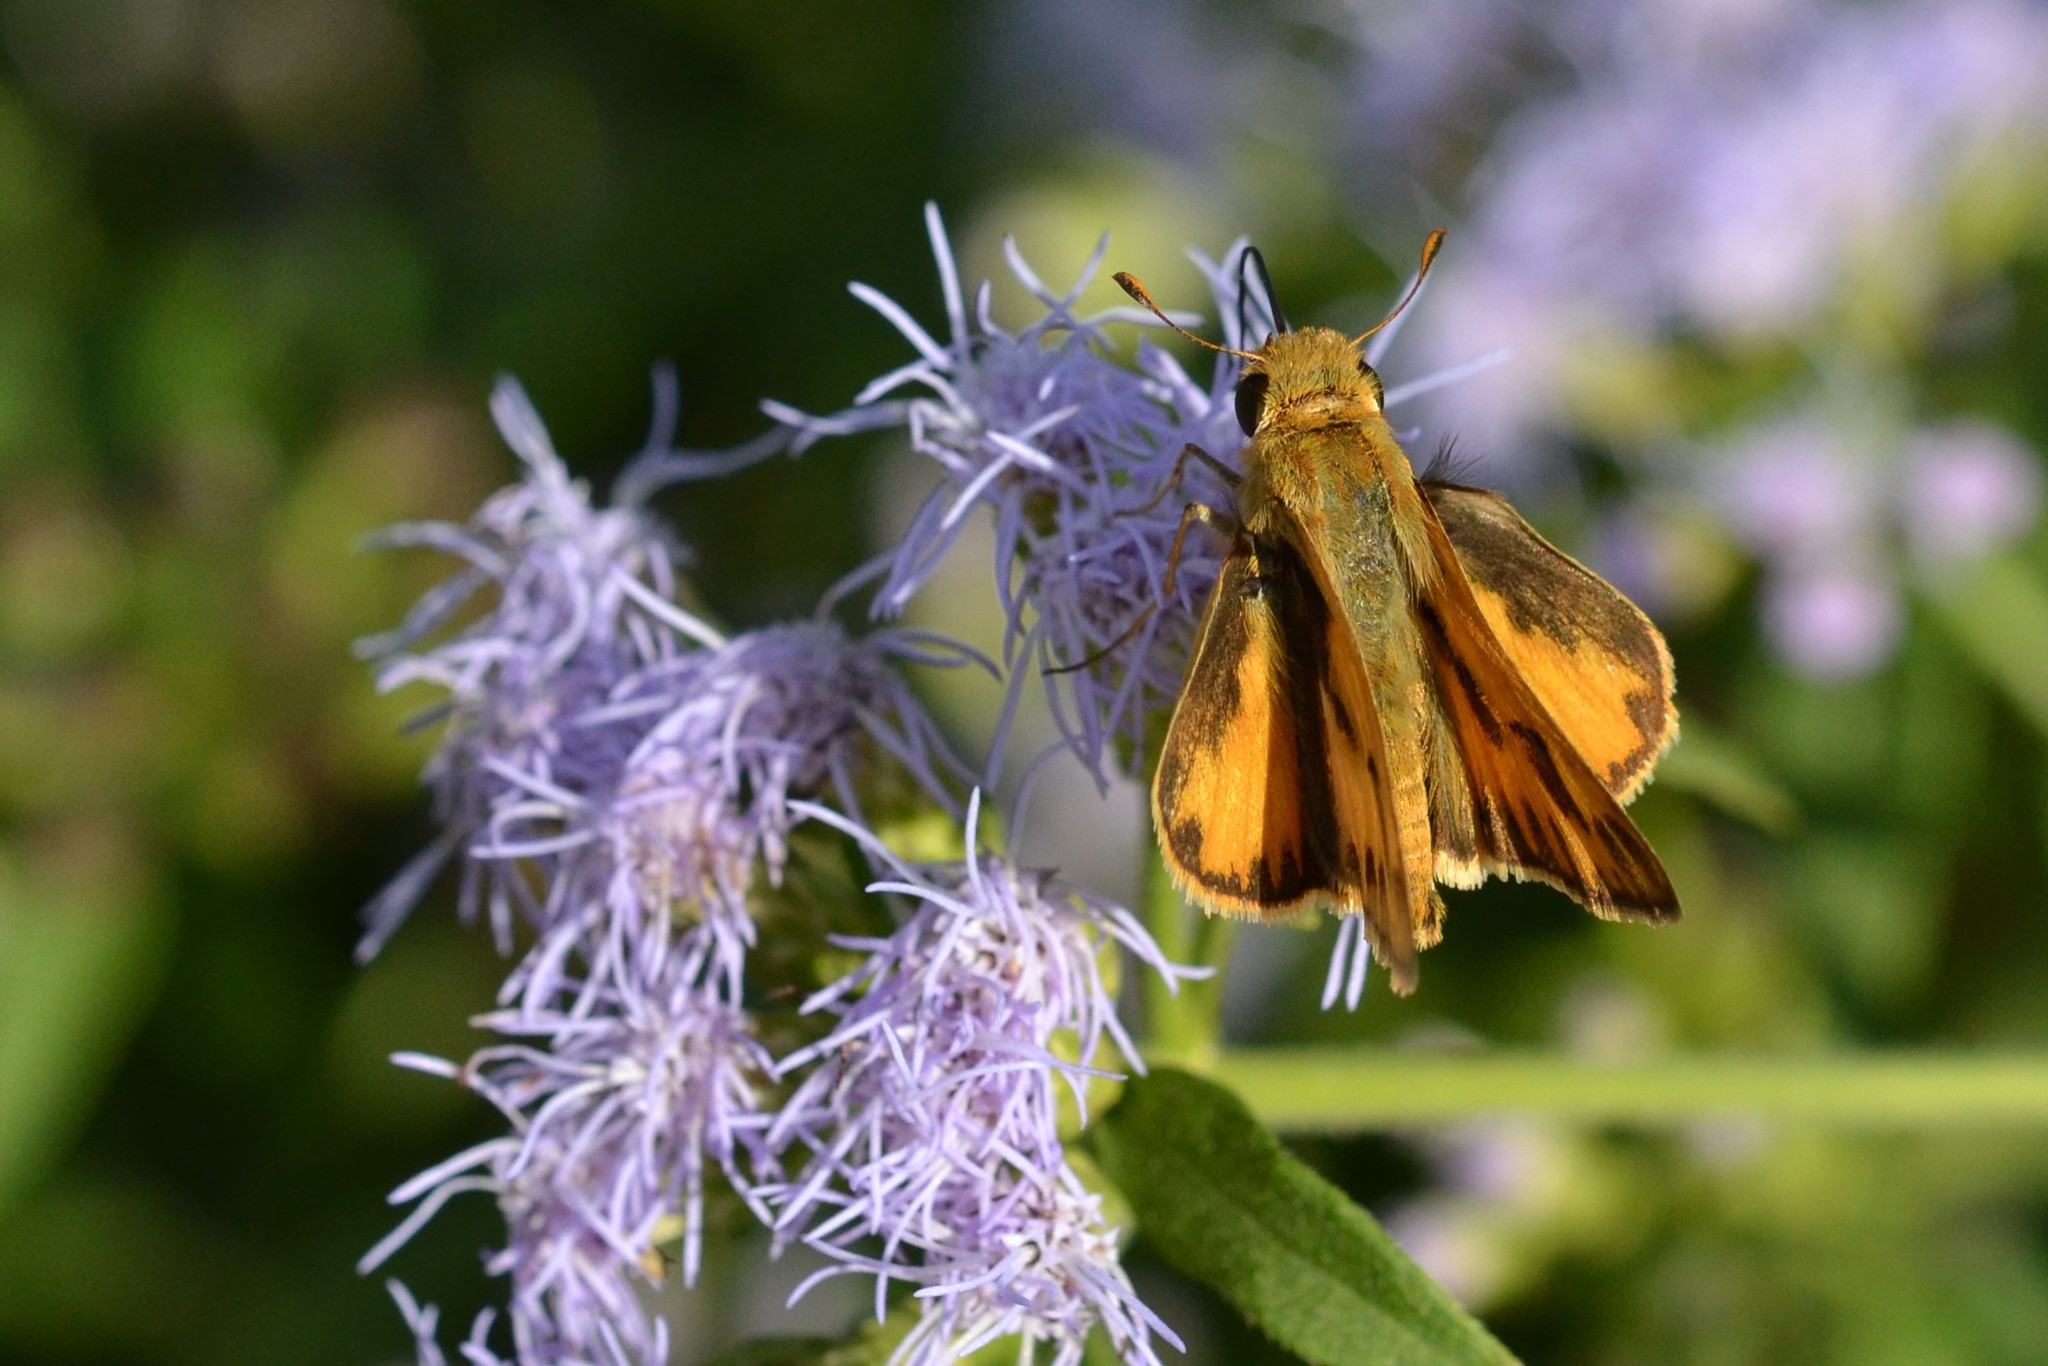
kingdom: Animalia
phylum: Arthropoda
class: Insecta
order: Lepidoptera
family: Hesperiidae
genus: Hylephila
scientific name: Hylephila phyleus
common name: Fiery skipper
